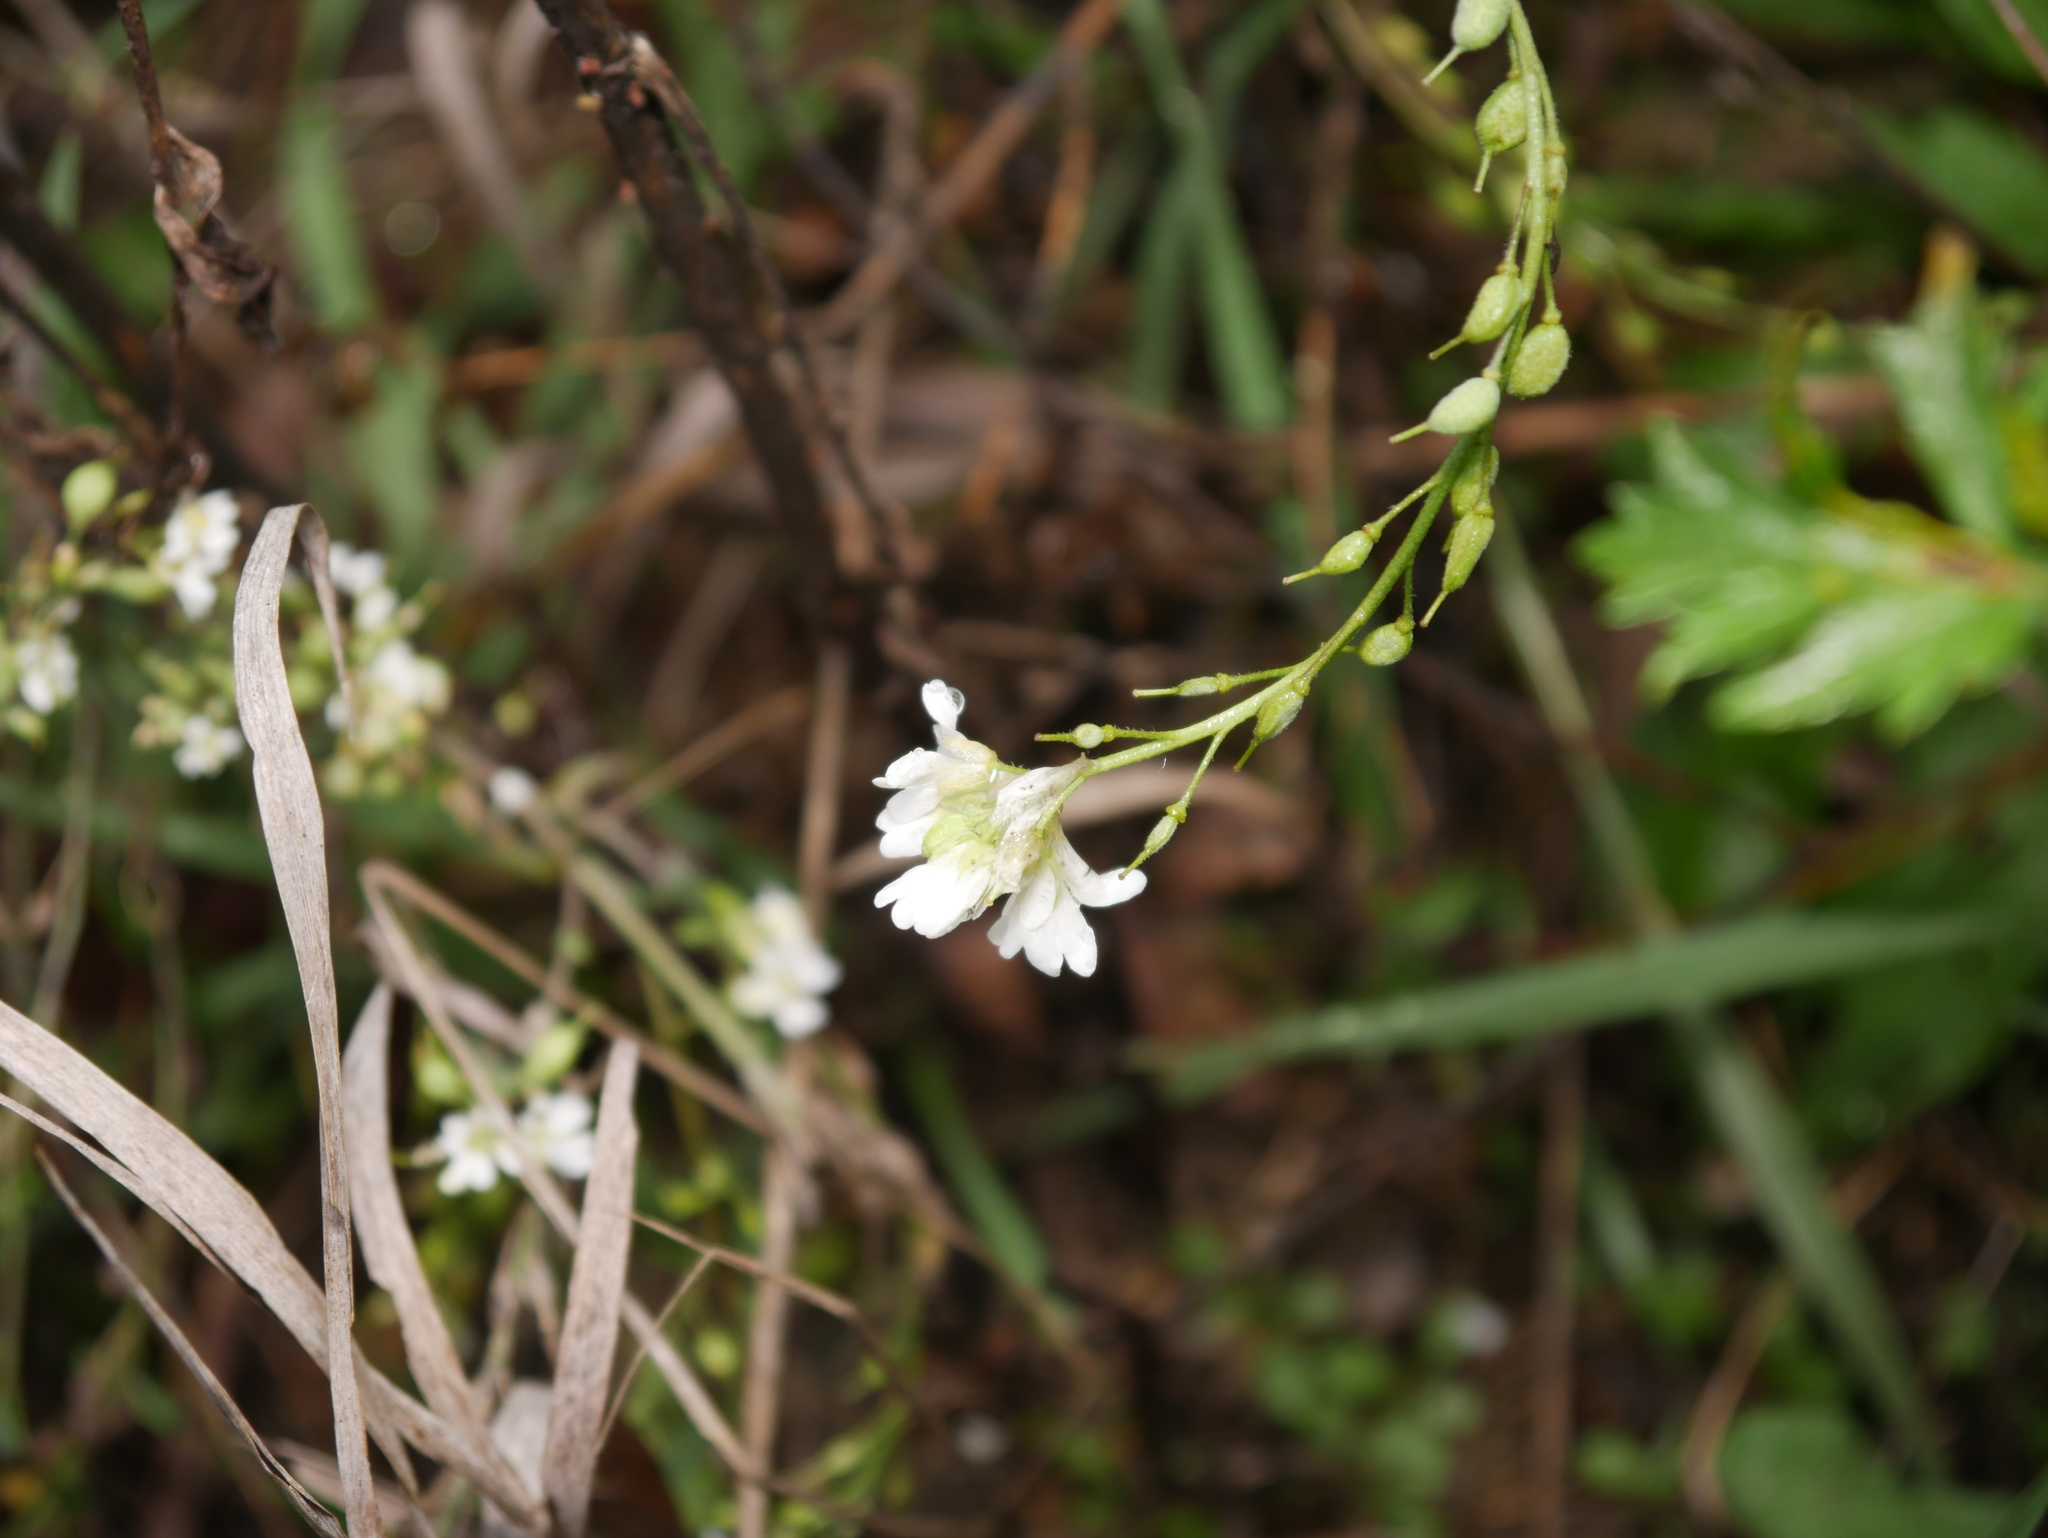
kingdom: Plantae
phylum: Tracheophyta
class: Magnoliopsida
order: Brassicales
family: Brassicaceae
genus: Berteroa
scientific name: Berteroa incana
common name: Hoary alison
